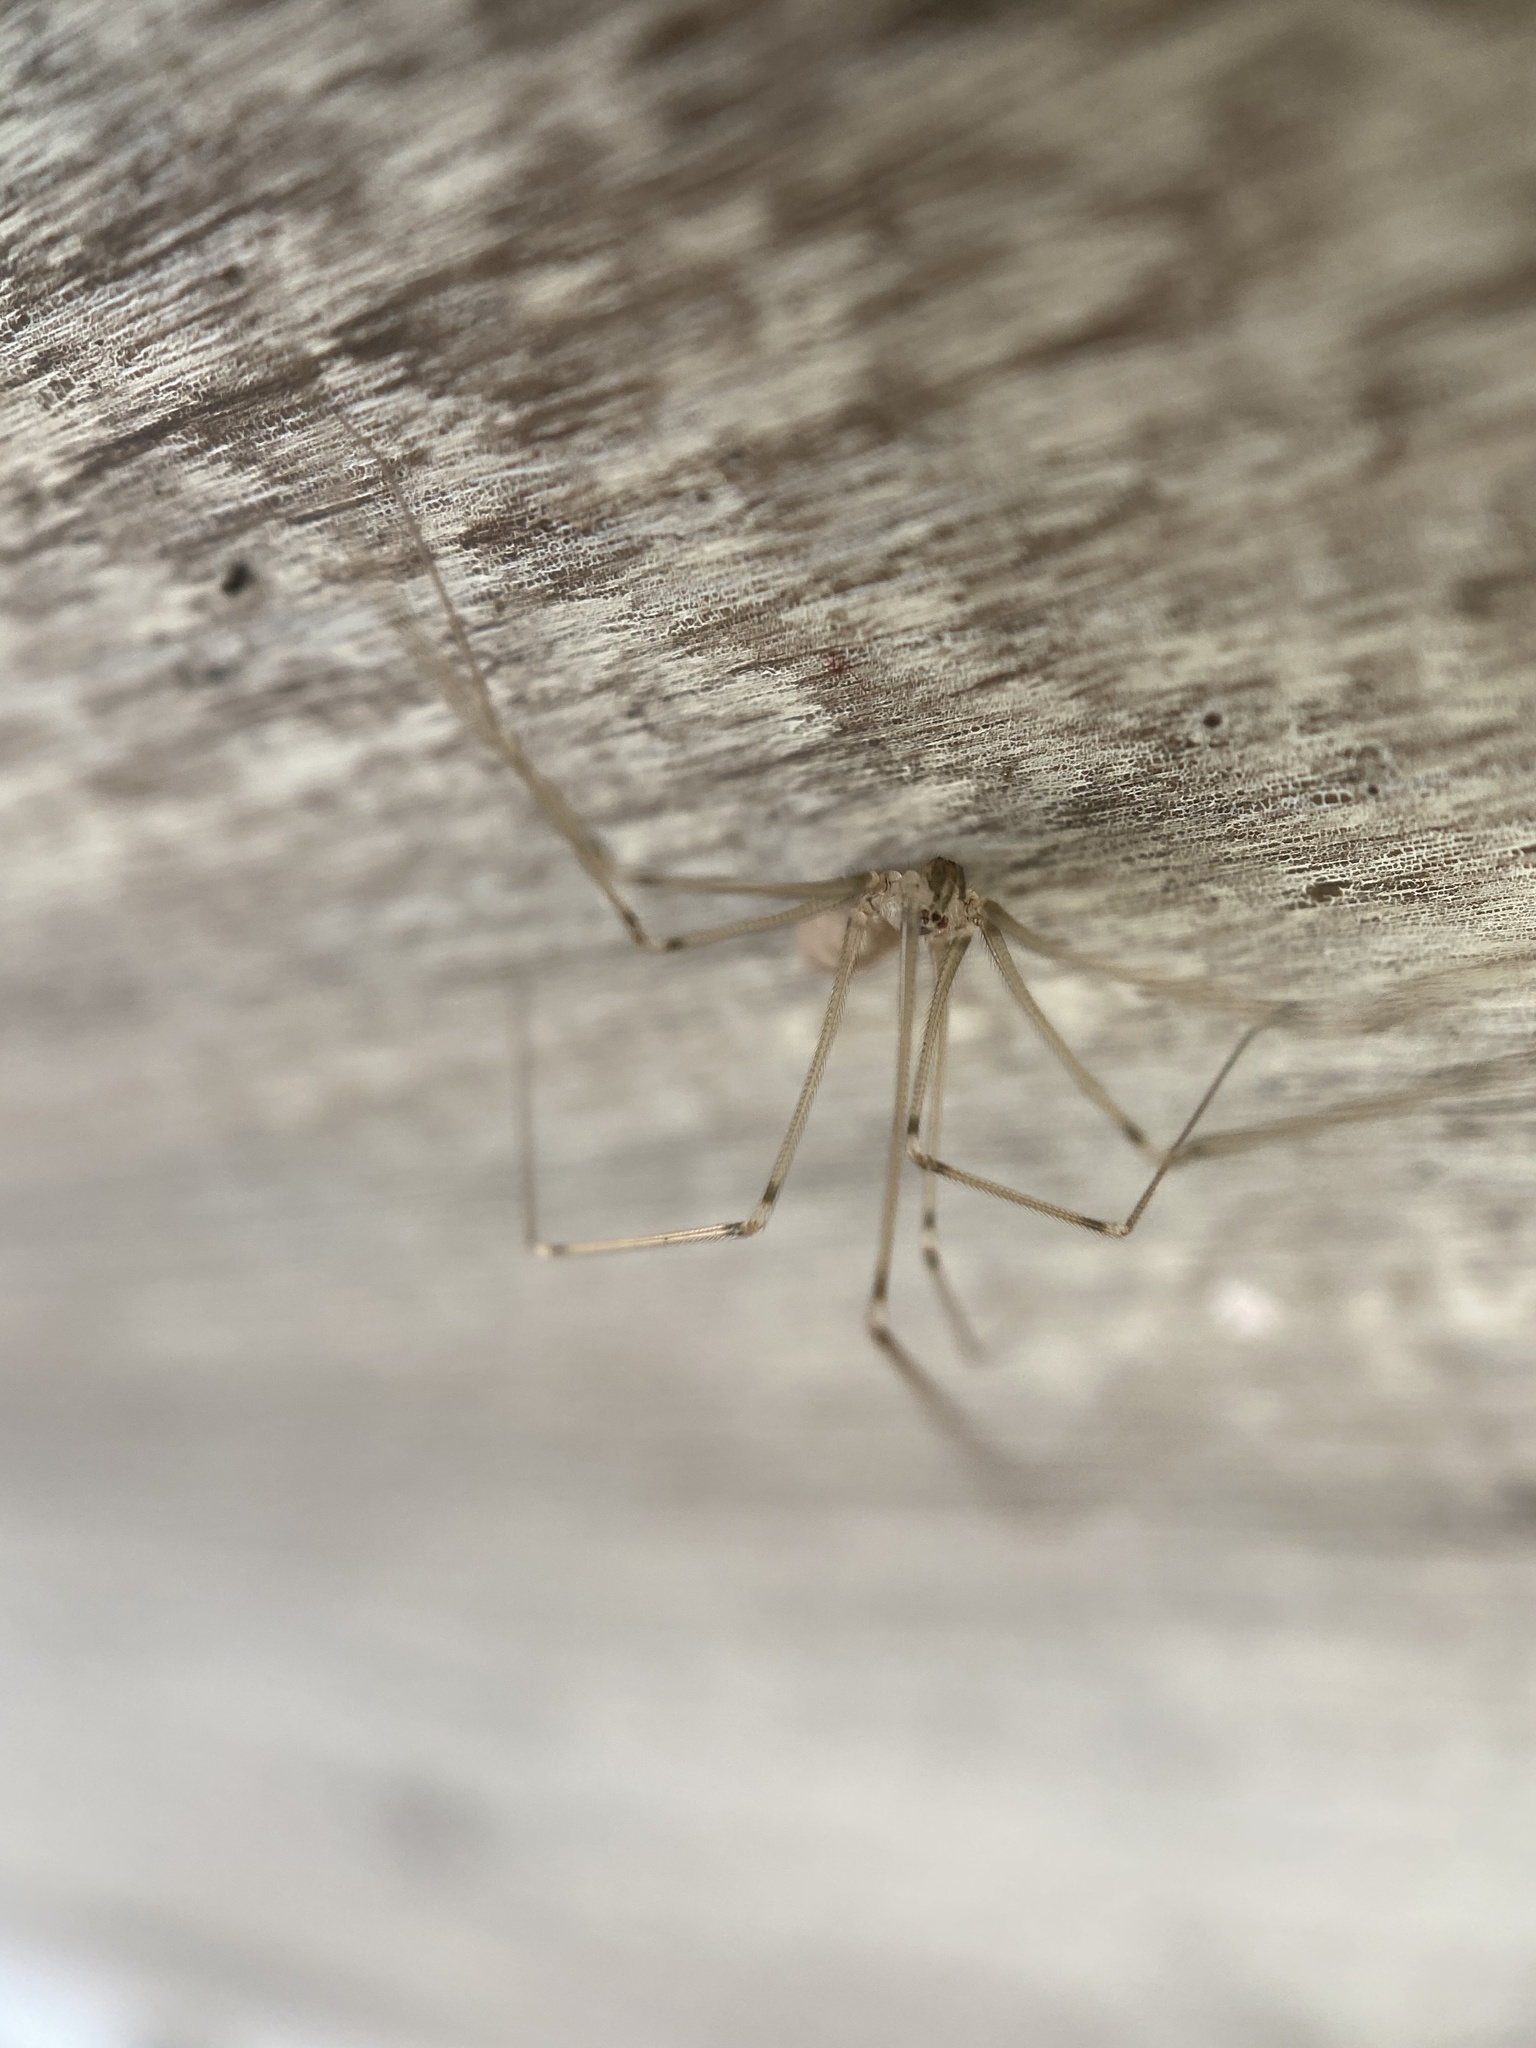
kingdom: Animalia
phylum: Arthropoda
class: Arachnida
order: Araneae
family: Pholcidae
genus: Pholcus
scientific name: Pholcus manueli
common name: Cellar spider
